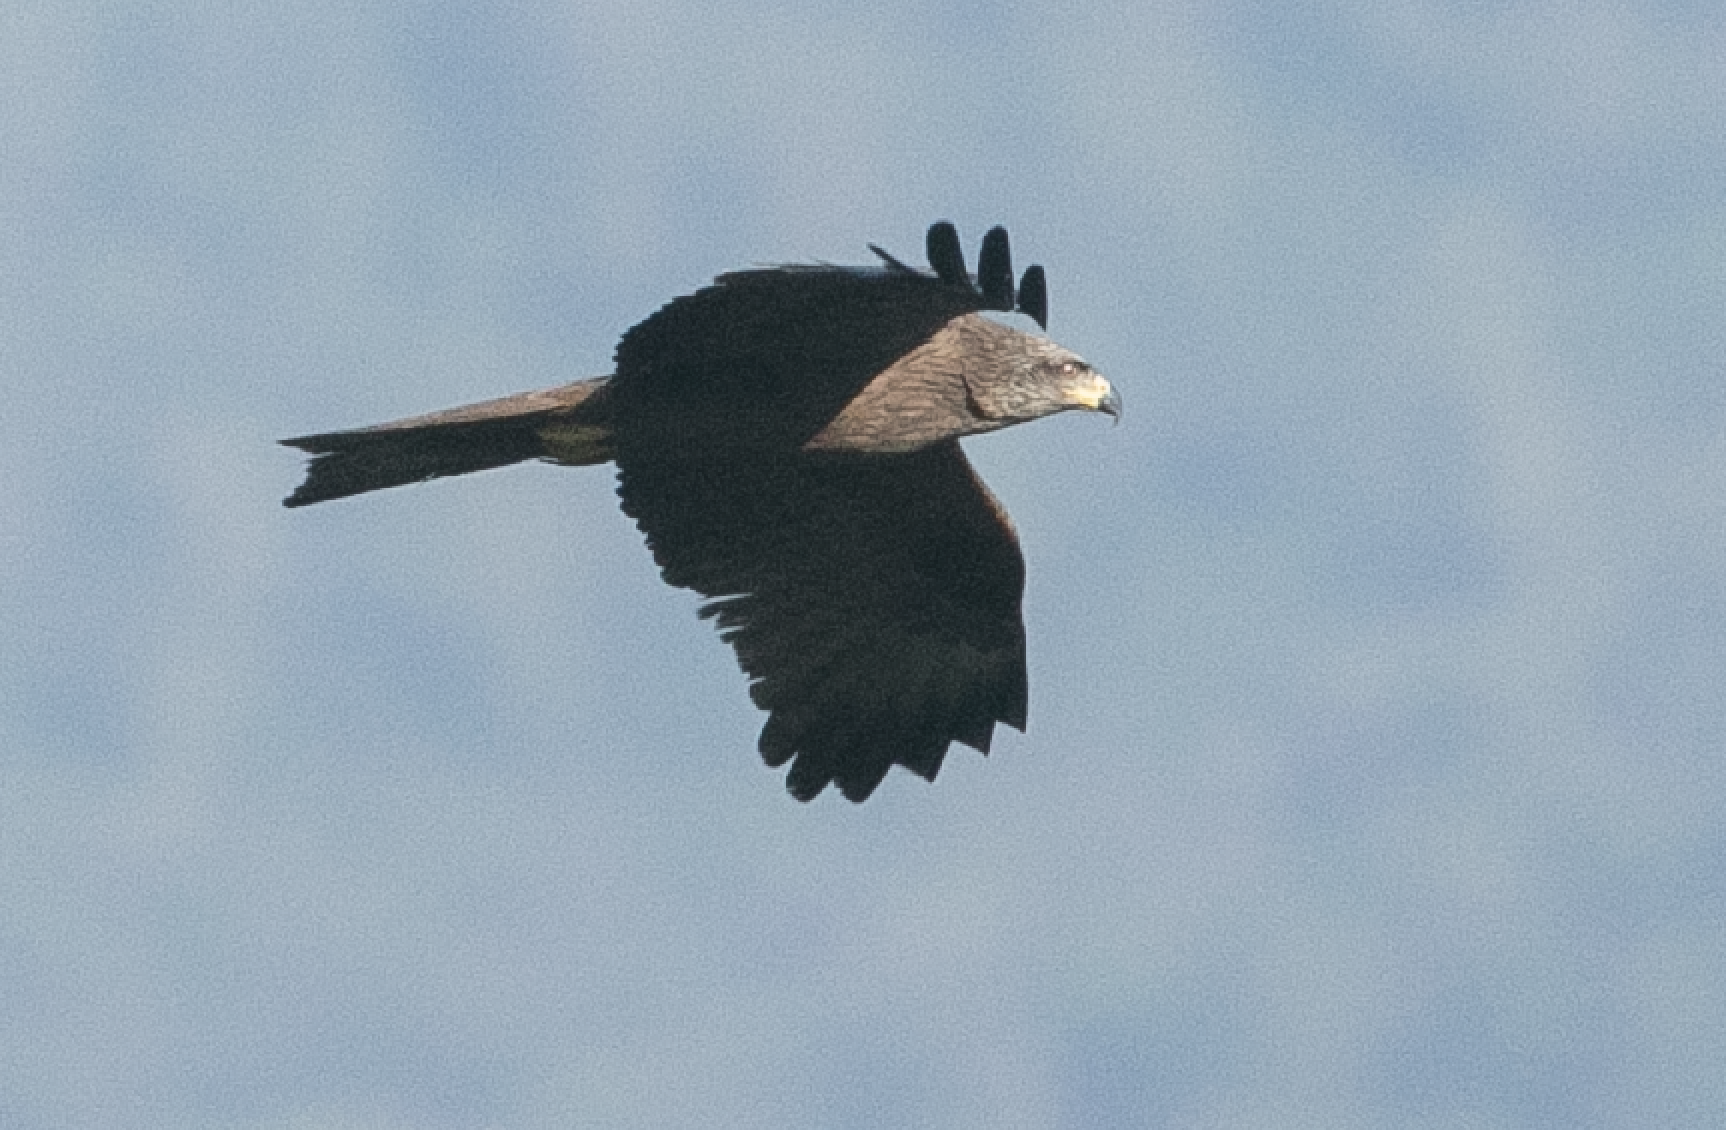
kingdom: Animalia
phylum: Chordata
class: Aves
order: Accipitriformes
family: Accipitridae
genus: Milvus
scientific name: Milvus migrans
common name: Black kite
